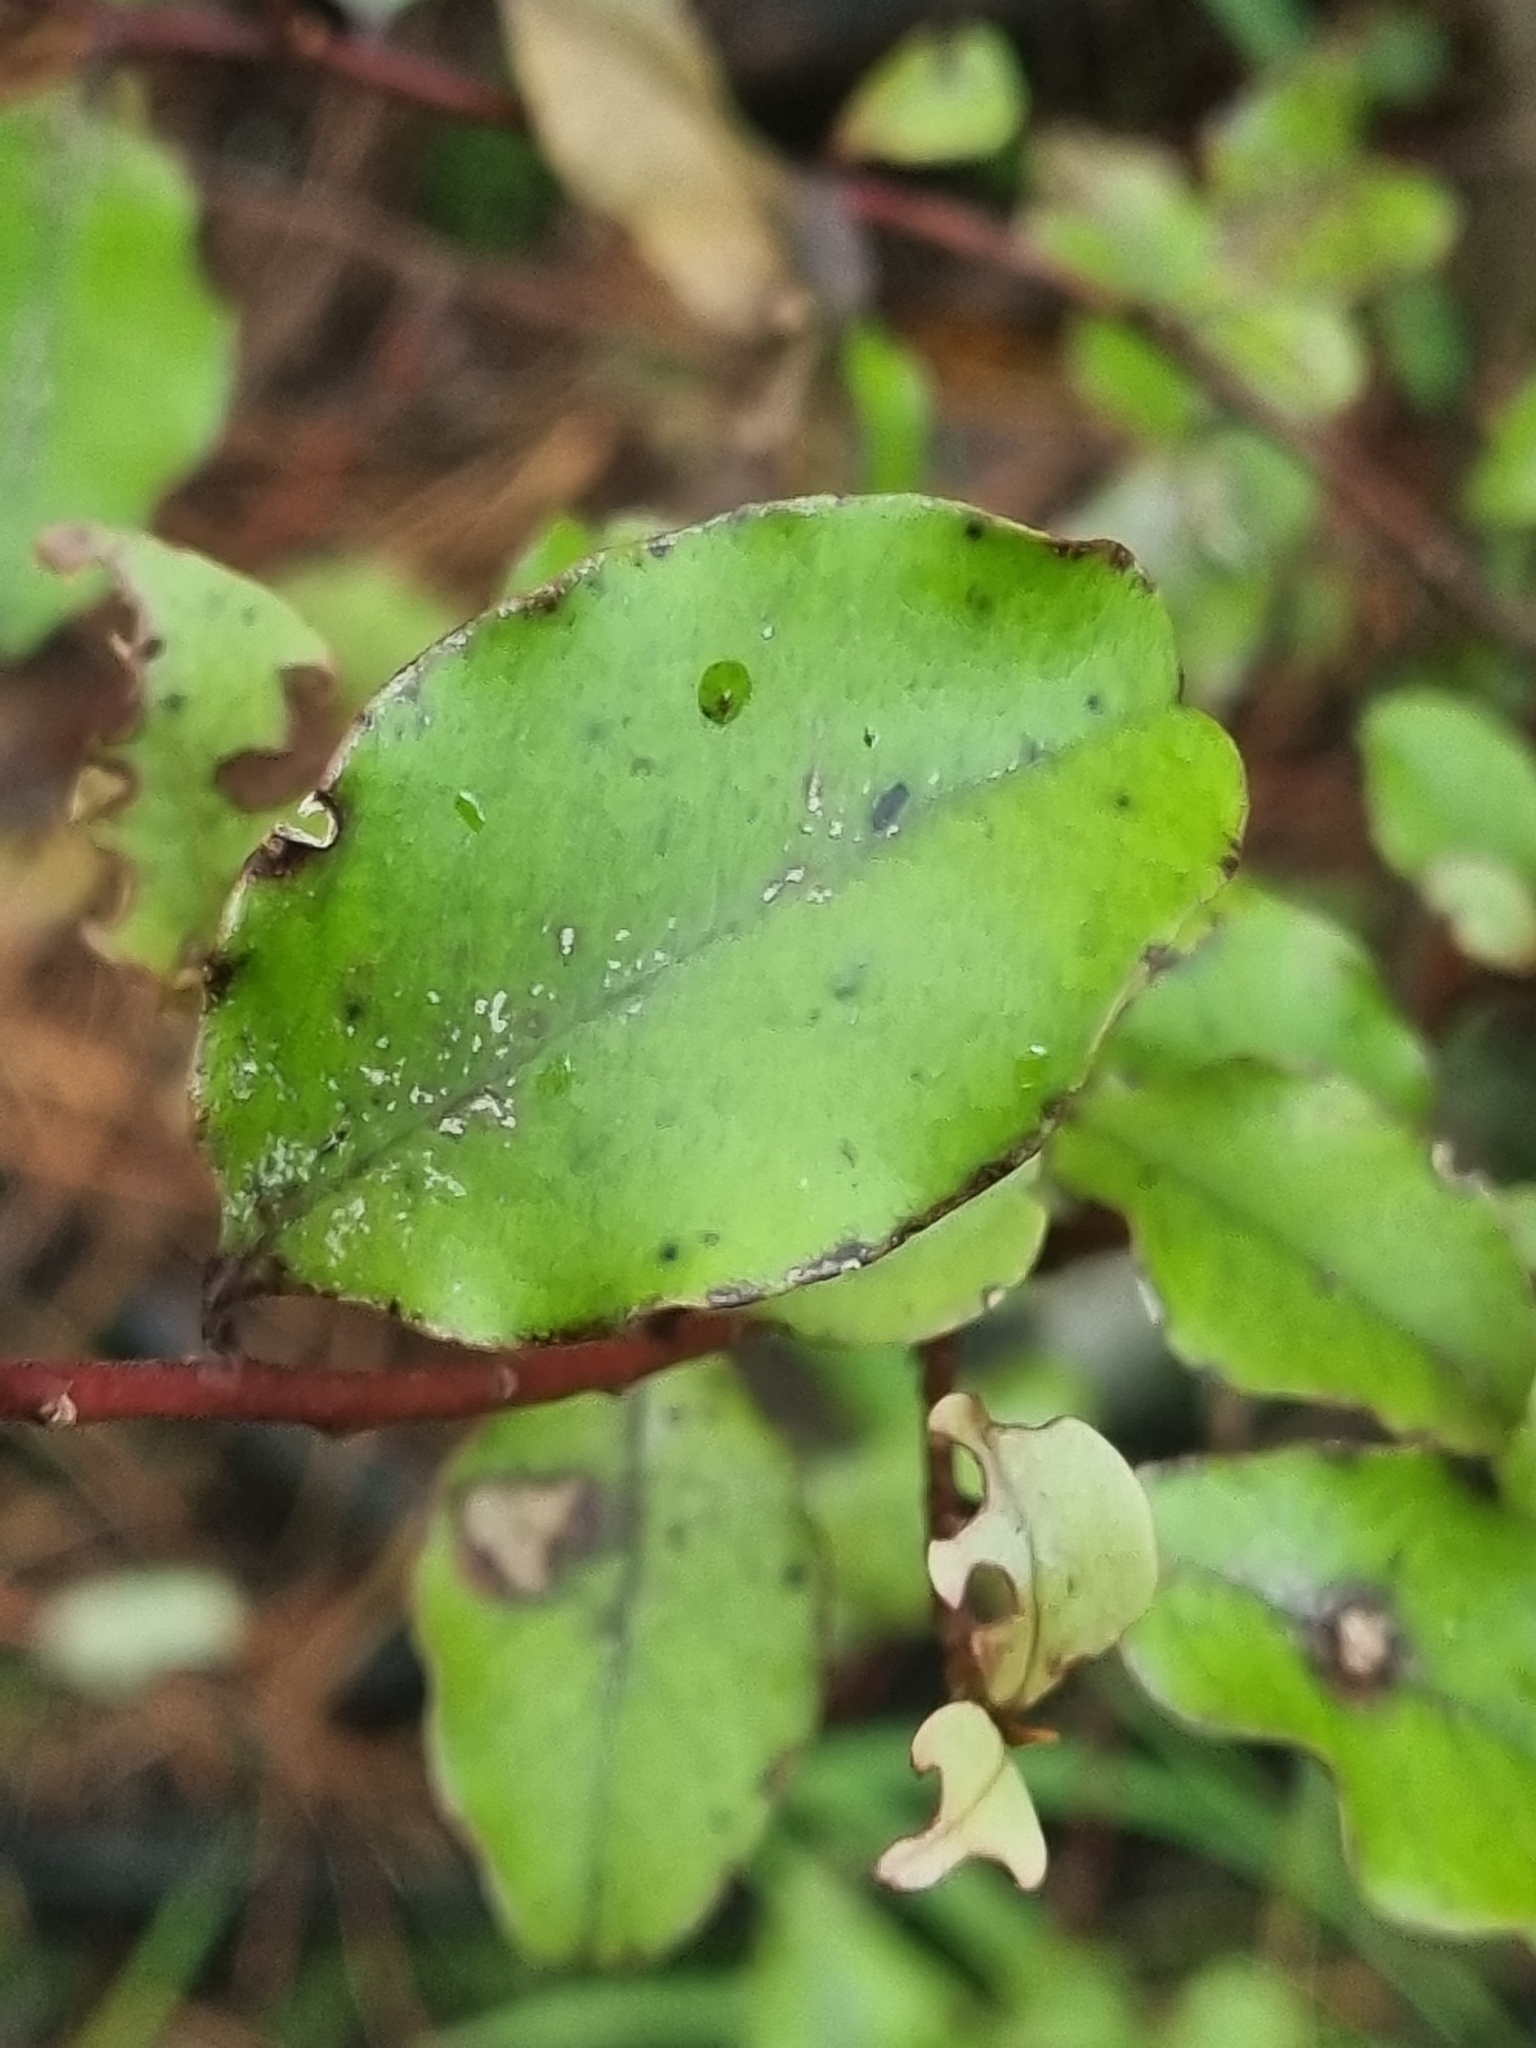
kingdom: Plantae
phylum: Tracheophyta
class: Magnoliopsida
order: Ericales
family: Primulaceae
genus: Myrsine
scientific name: Myrsine australis
